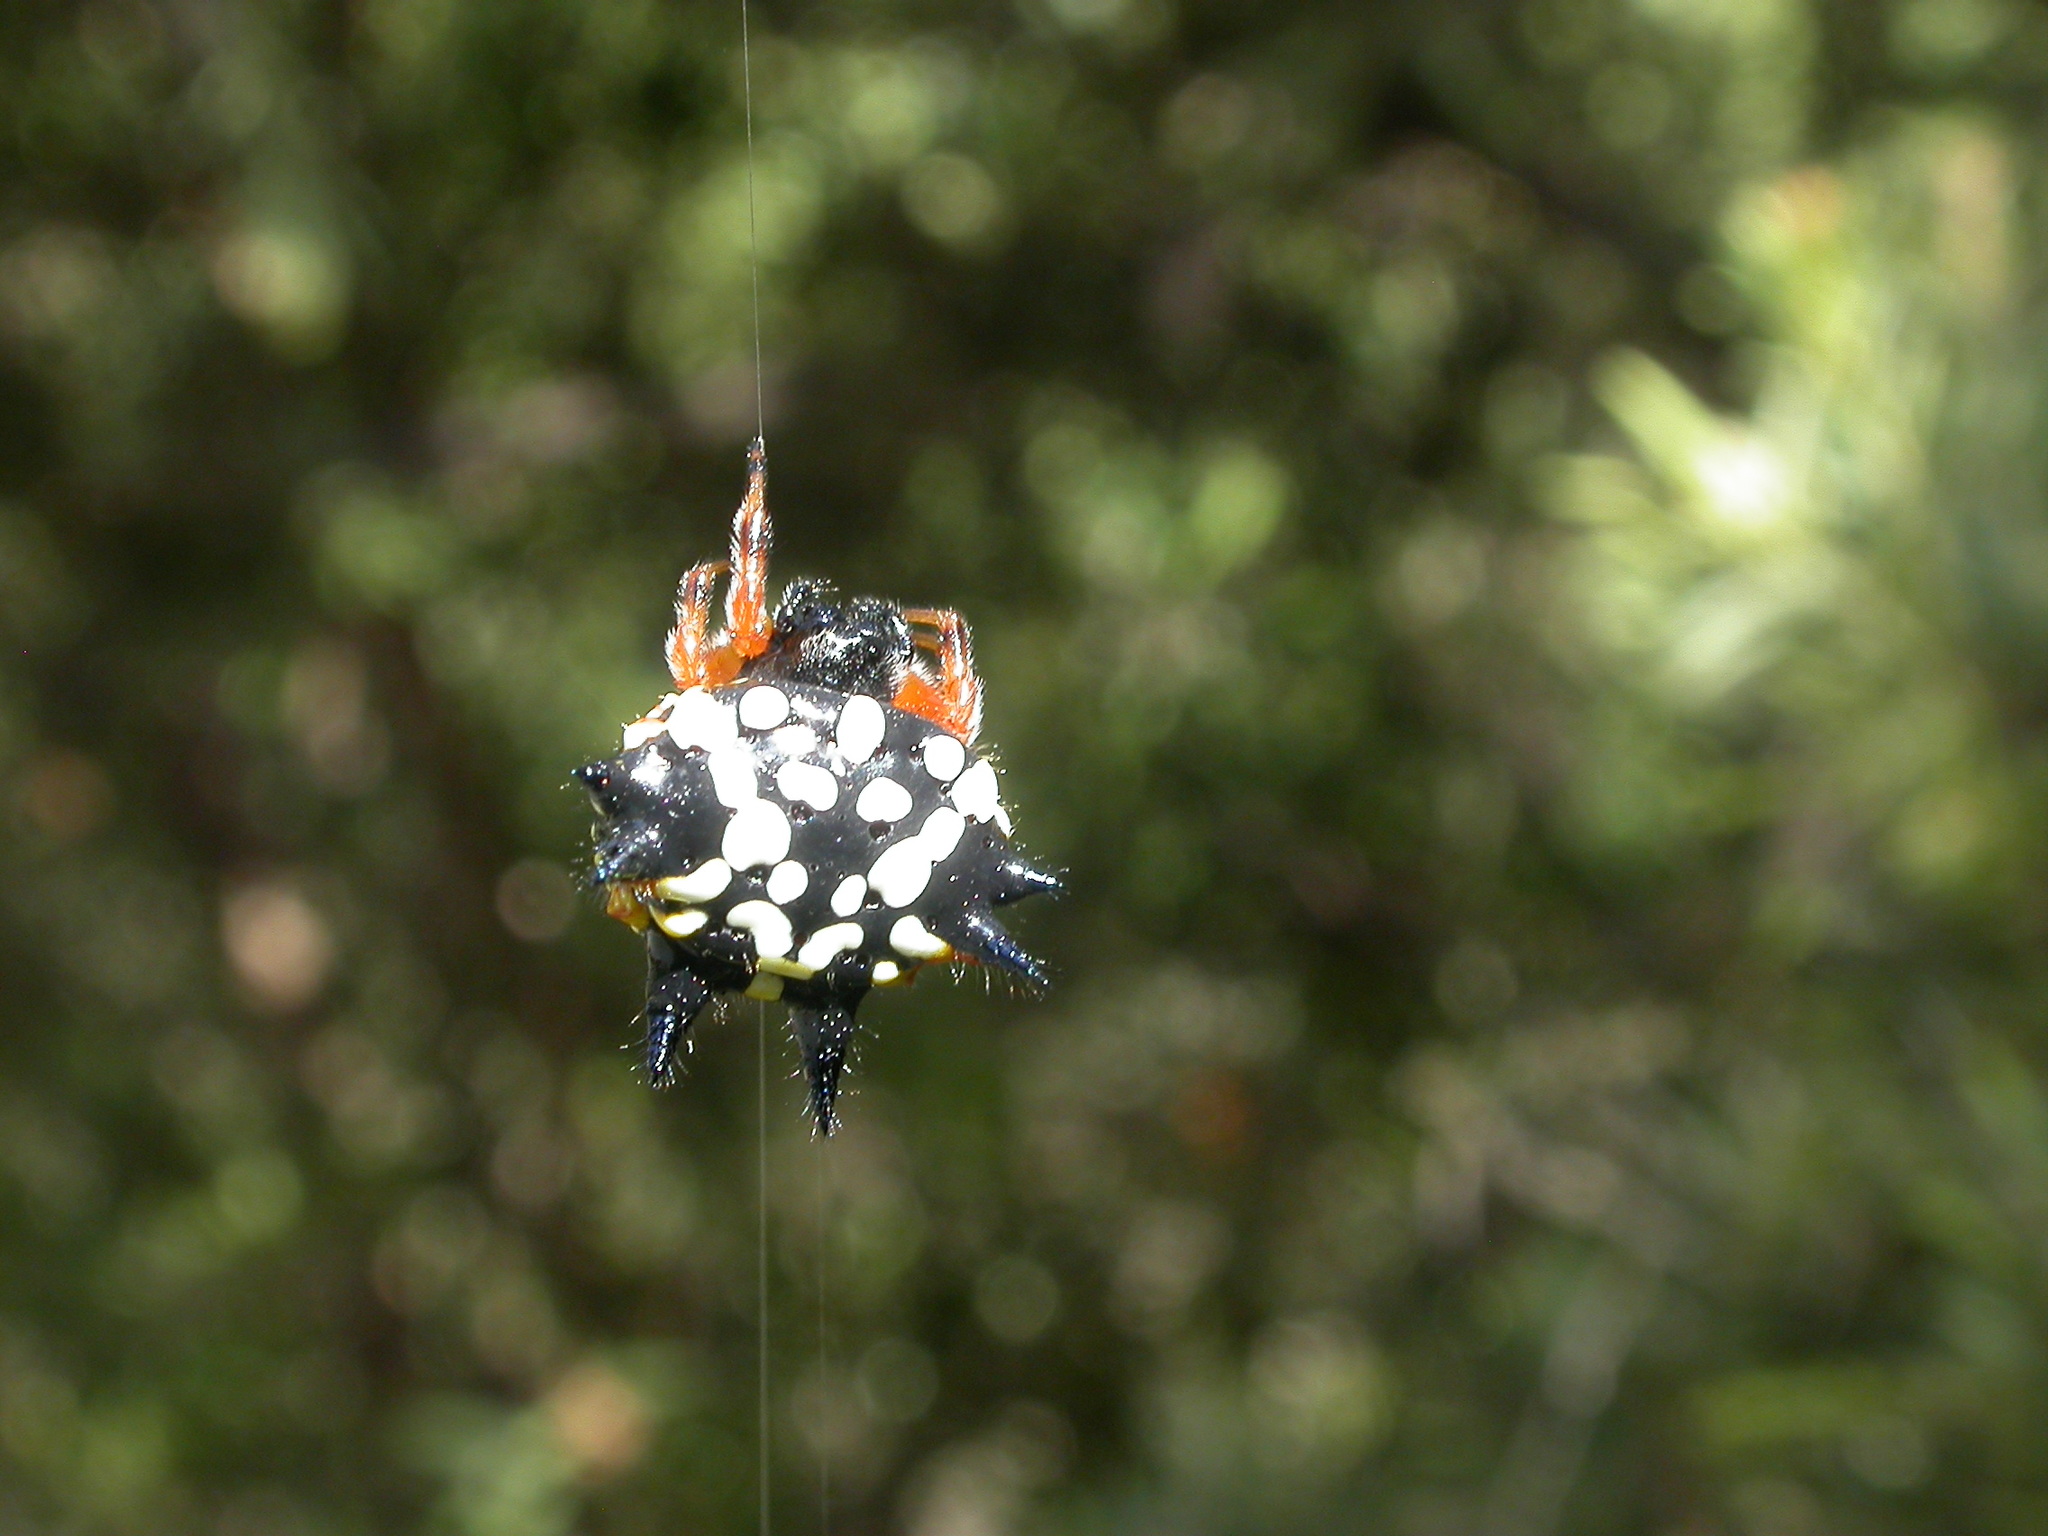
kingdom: Animalia
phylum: Arthropoda
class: Arachnida
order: Araneae
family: Araneidae
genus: Austracantha
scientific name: Austracantha minax
